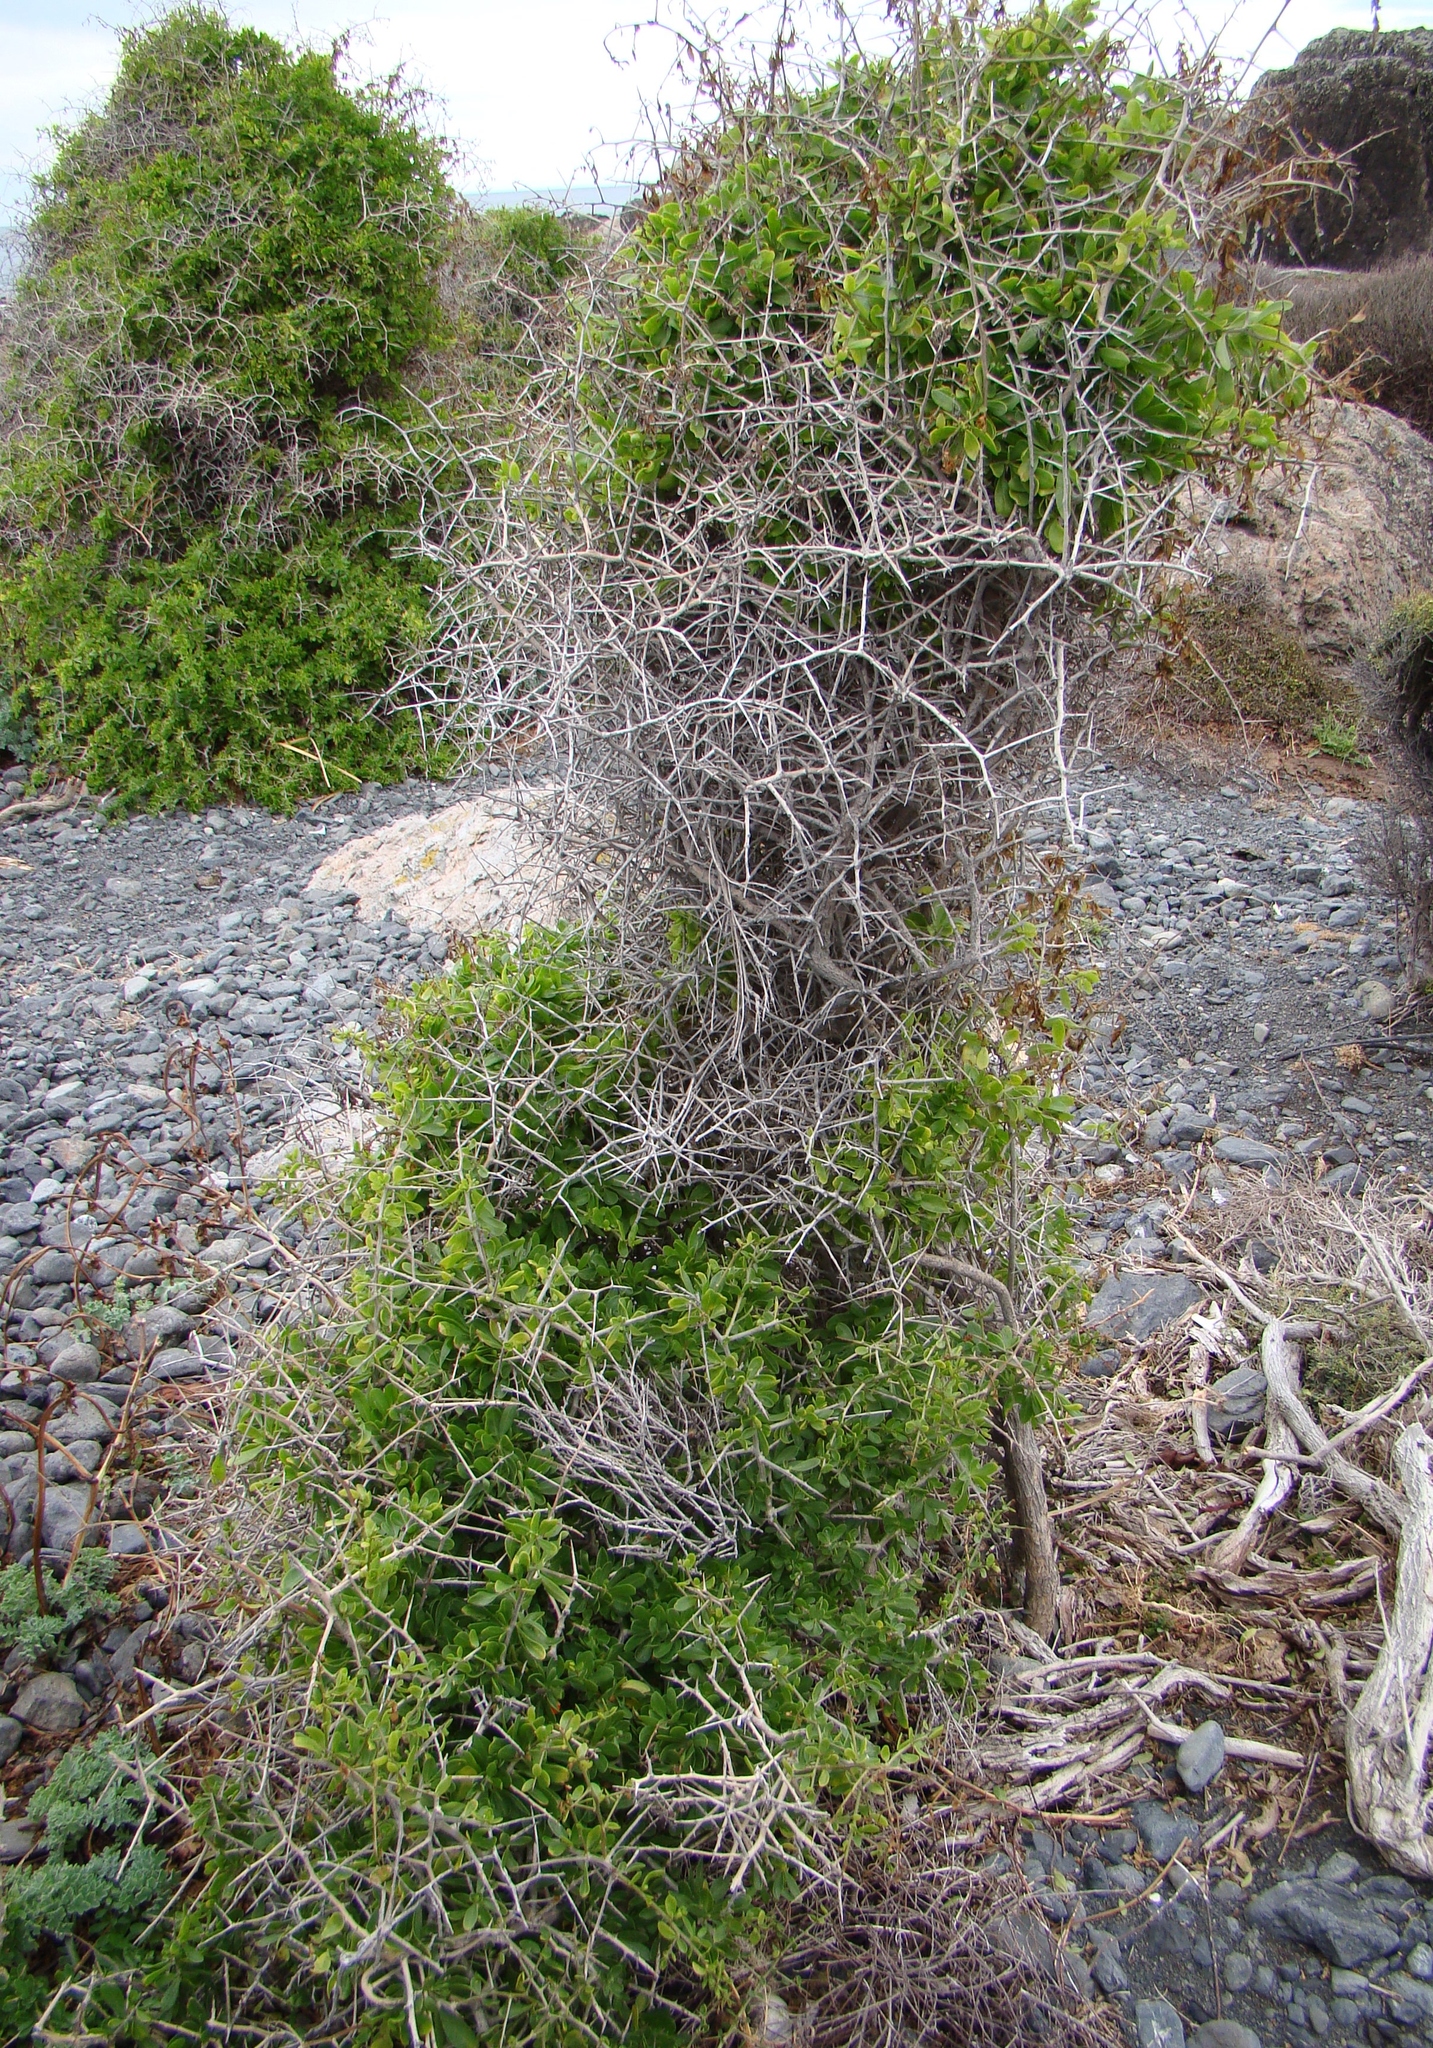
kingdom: Plantae
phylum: Tracheophyta
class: Magnoliopsida
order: Solanales
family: Solanaceae
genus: Lycium
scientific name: Lycium ferocissimum
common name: African boxthorn
